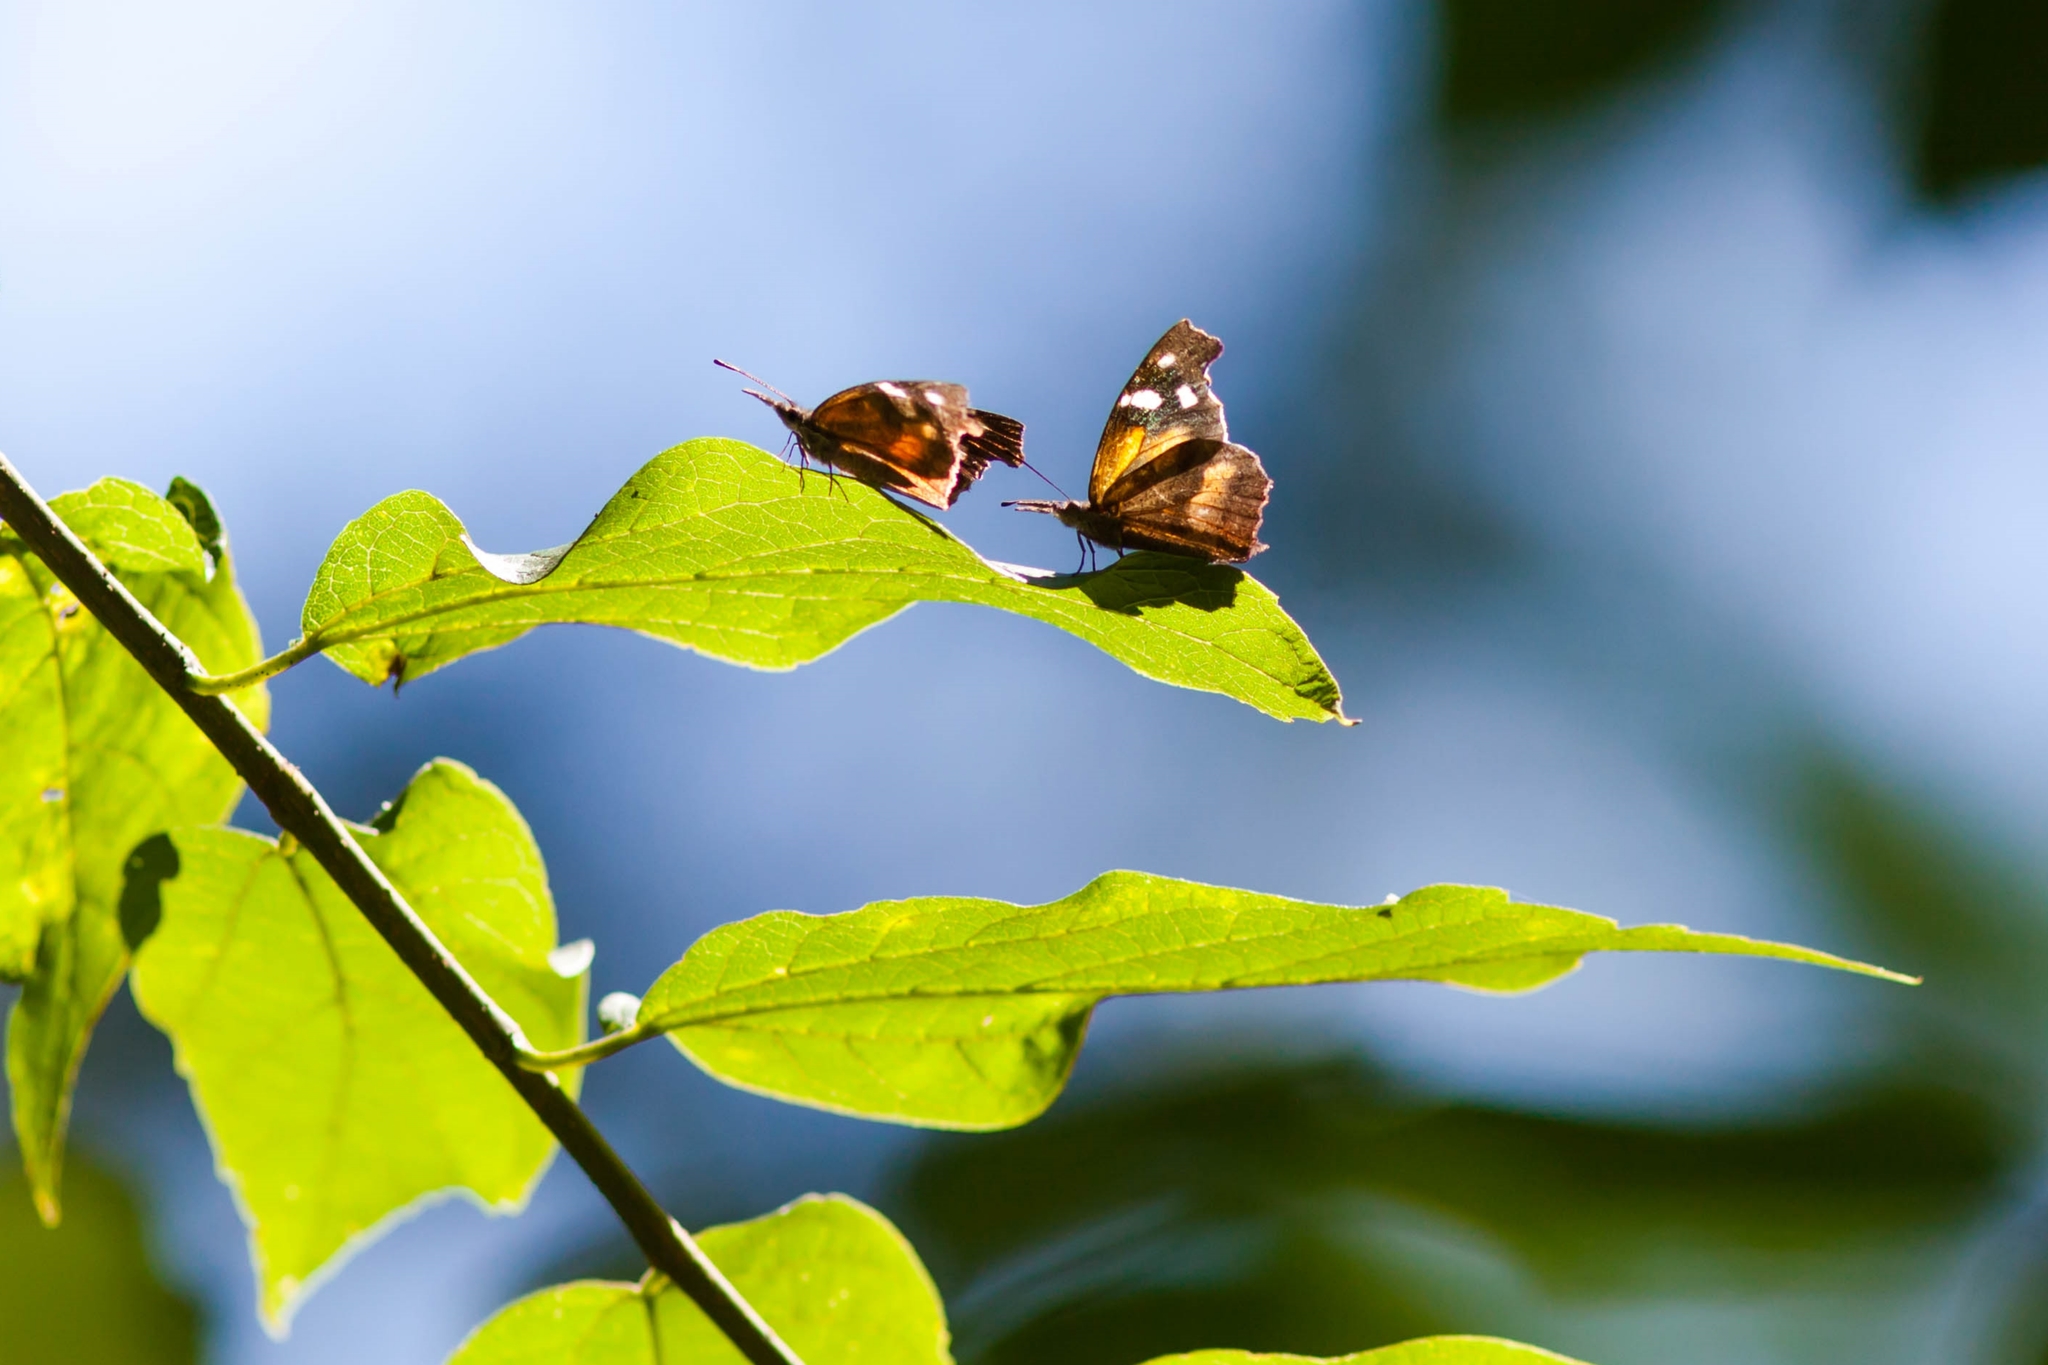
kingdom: Animalia
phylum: Arthropoda
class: Insecta
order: Lepidoptera
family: Nymphalidae
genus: Libytheana
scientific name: Libytheana carinenta
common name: American snout
